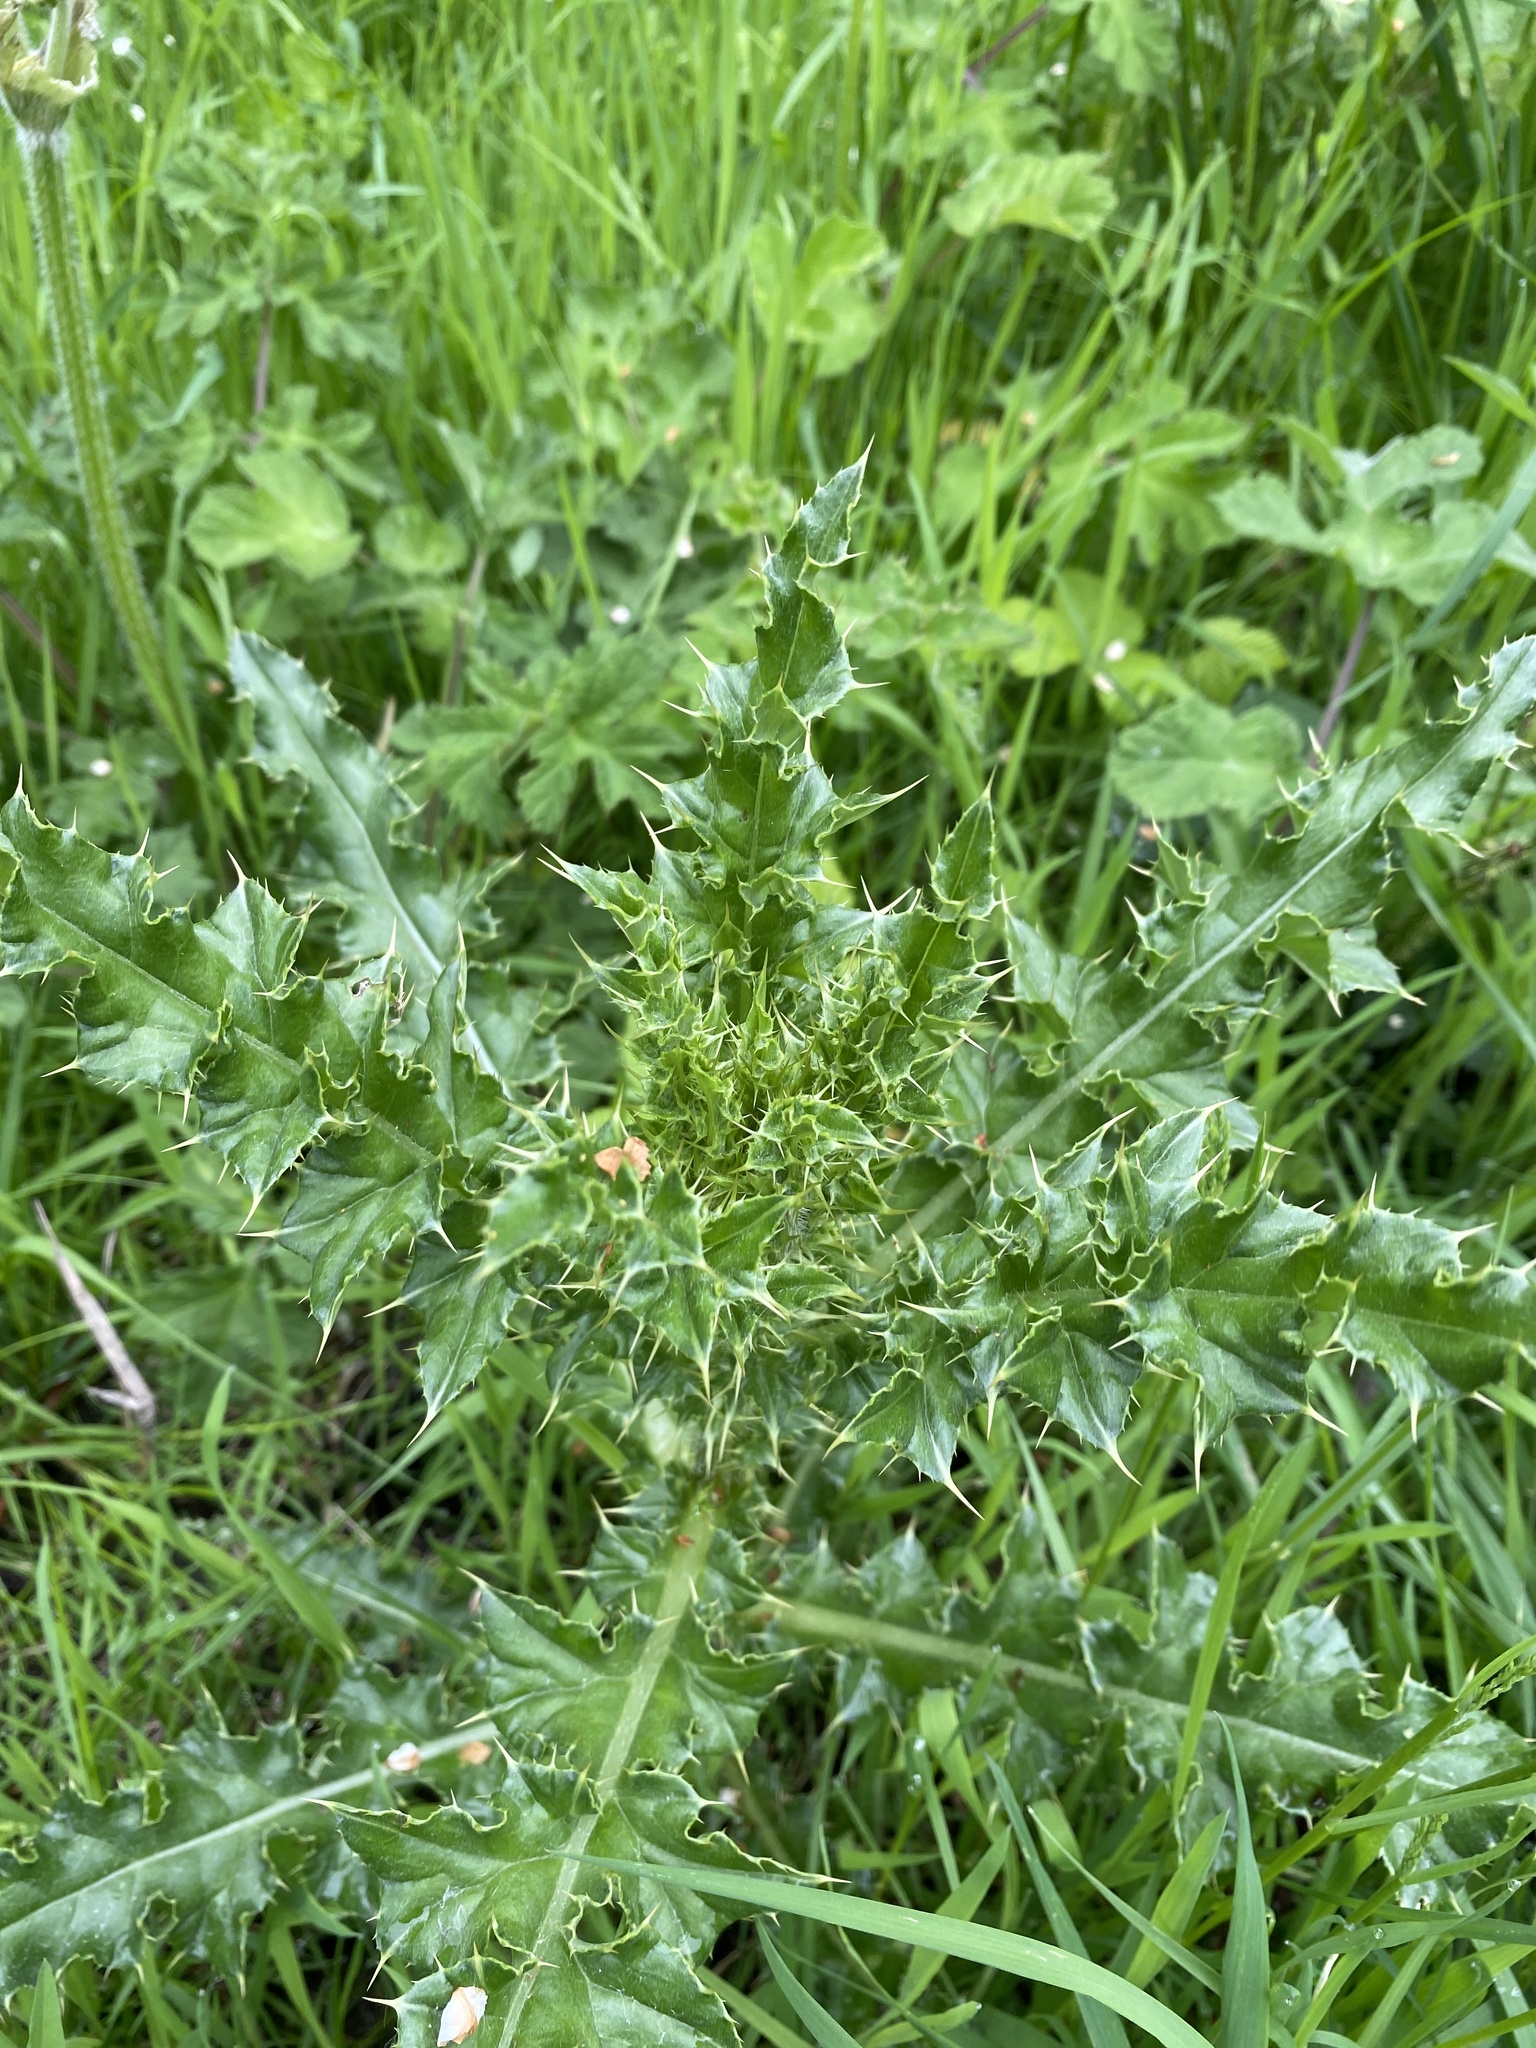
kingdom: Plantae
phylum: Tracheophyta
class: Magnoliopsida
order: Asterales
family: Asteraceae
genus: Cirsium
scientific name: Cirsium arvense
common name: Creeping thistle
